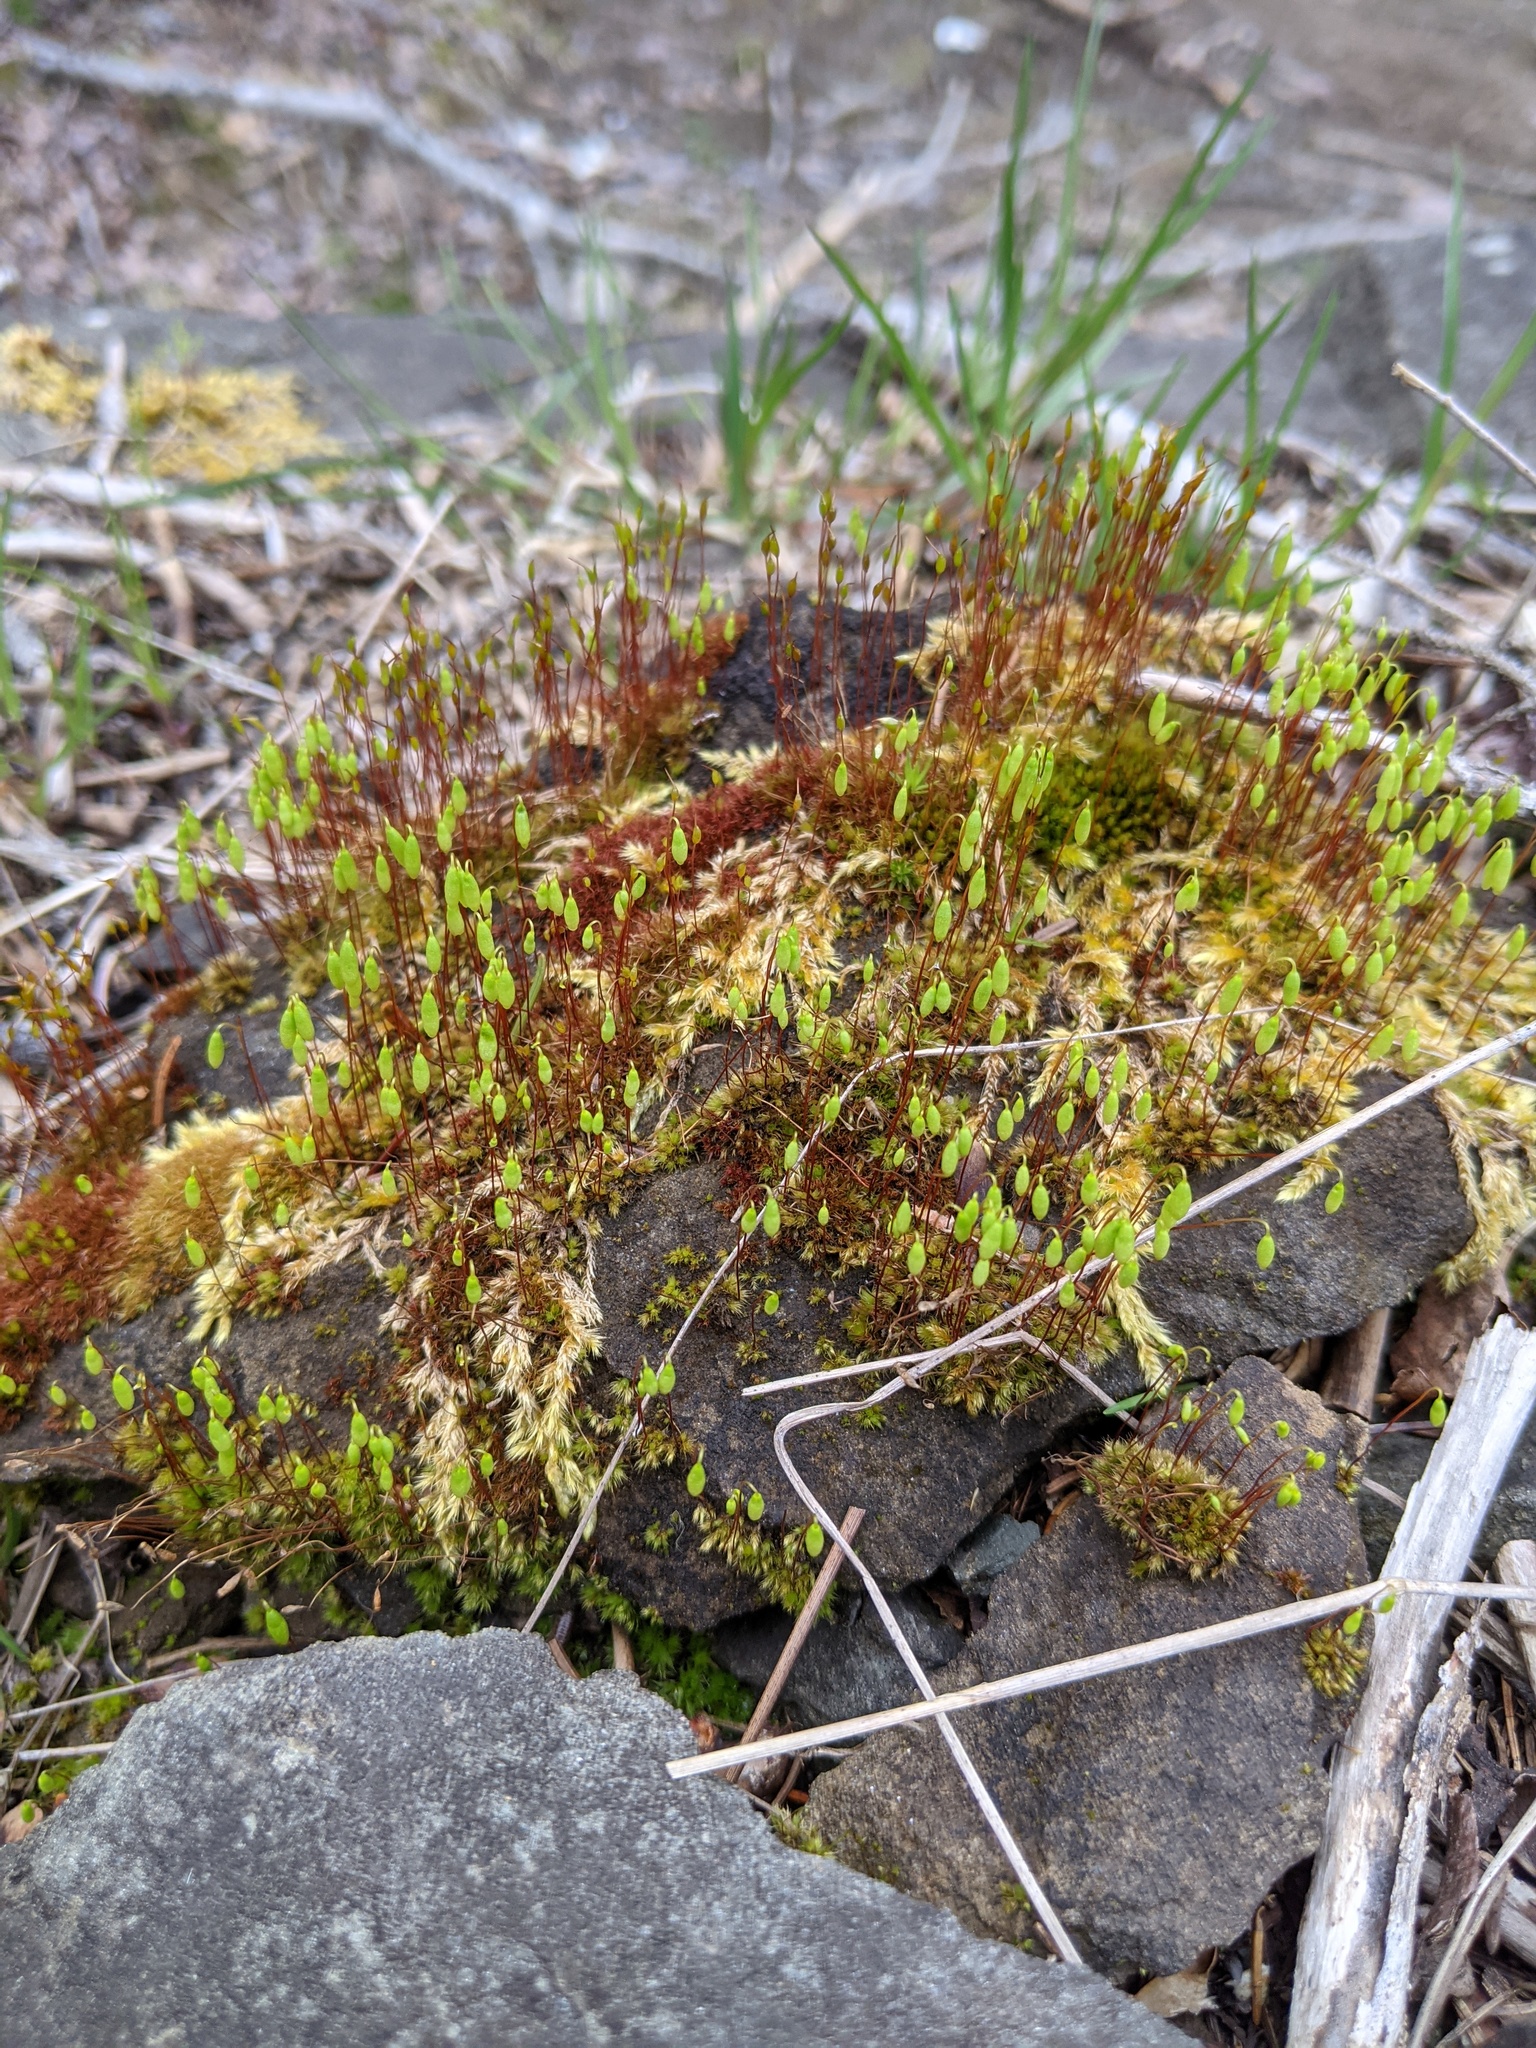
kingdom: Plantae
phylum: Bryophyta
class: Bryopsida
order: Bryales
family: Mniaceae
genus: Pohlia
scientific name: Pohlia nutans
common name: Nodding thread-moss
